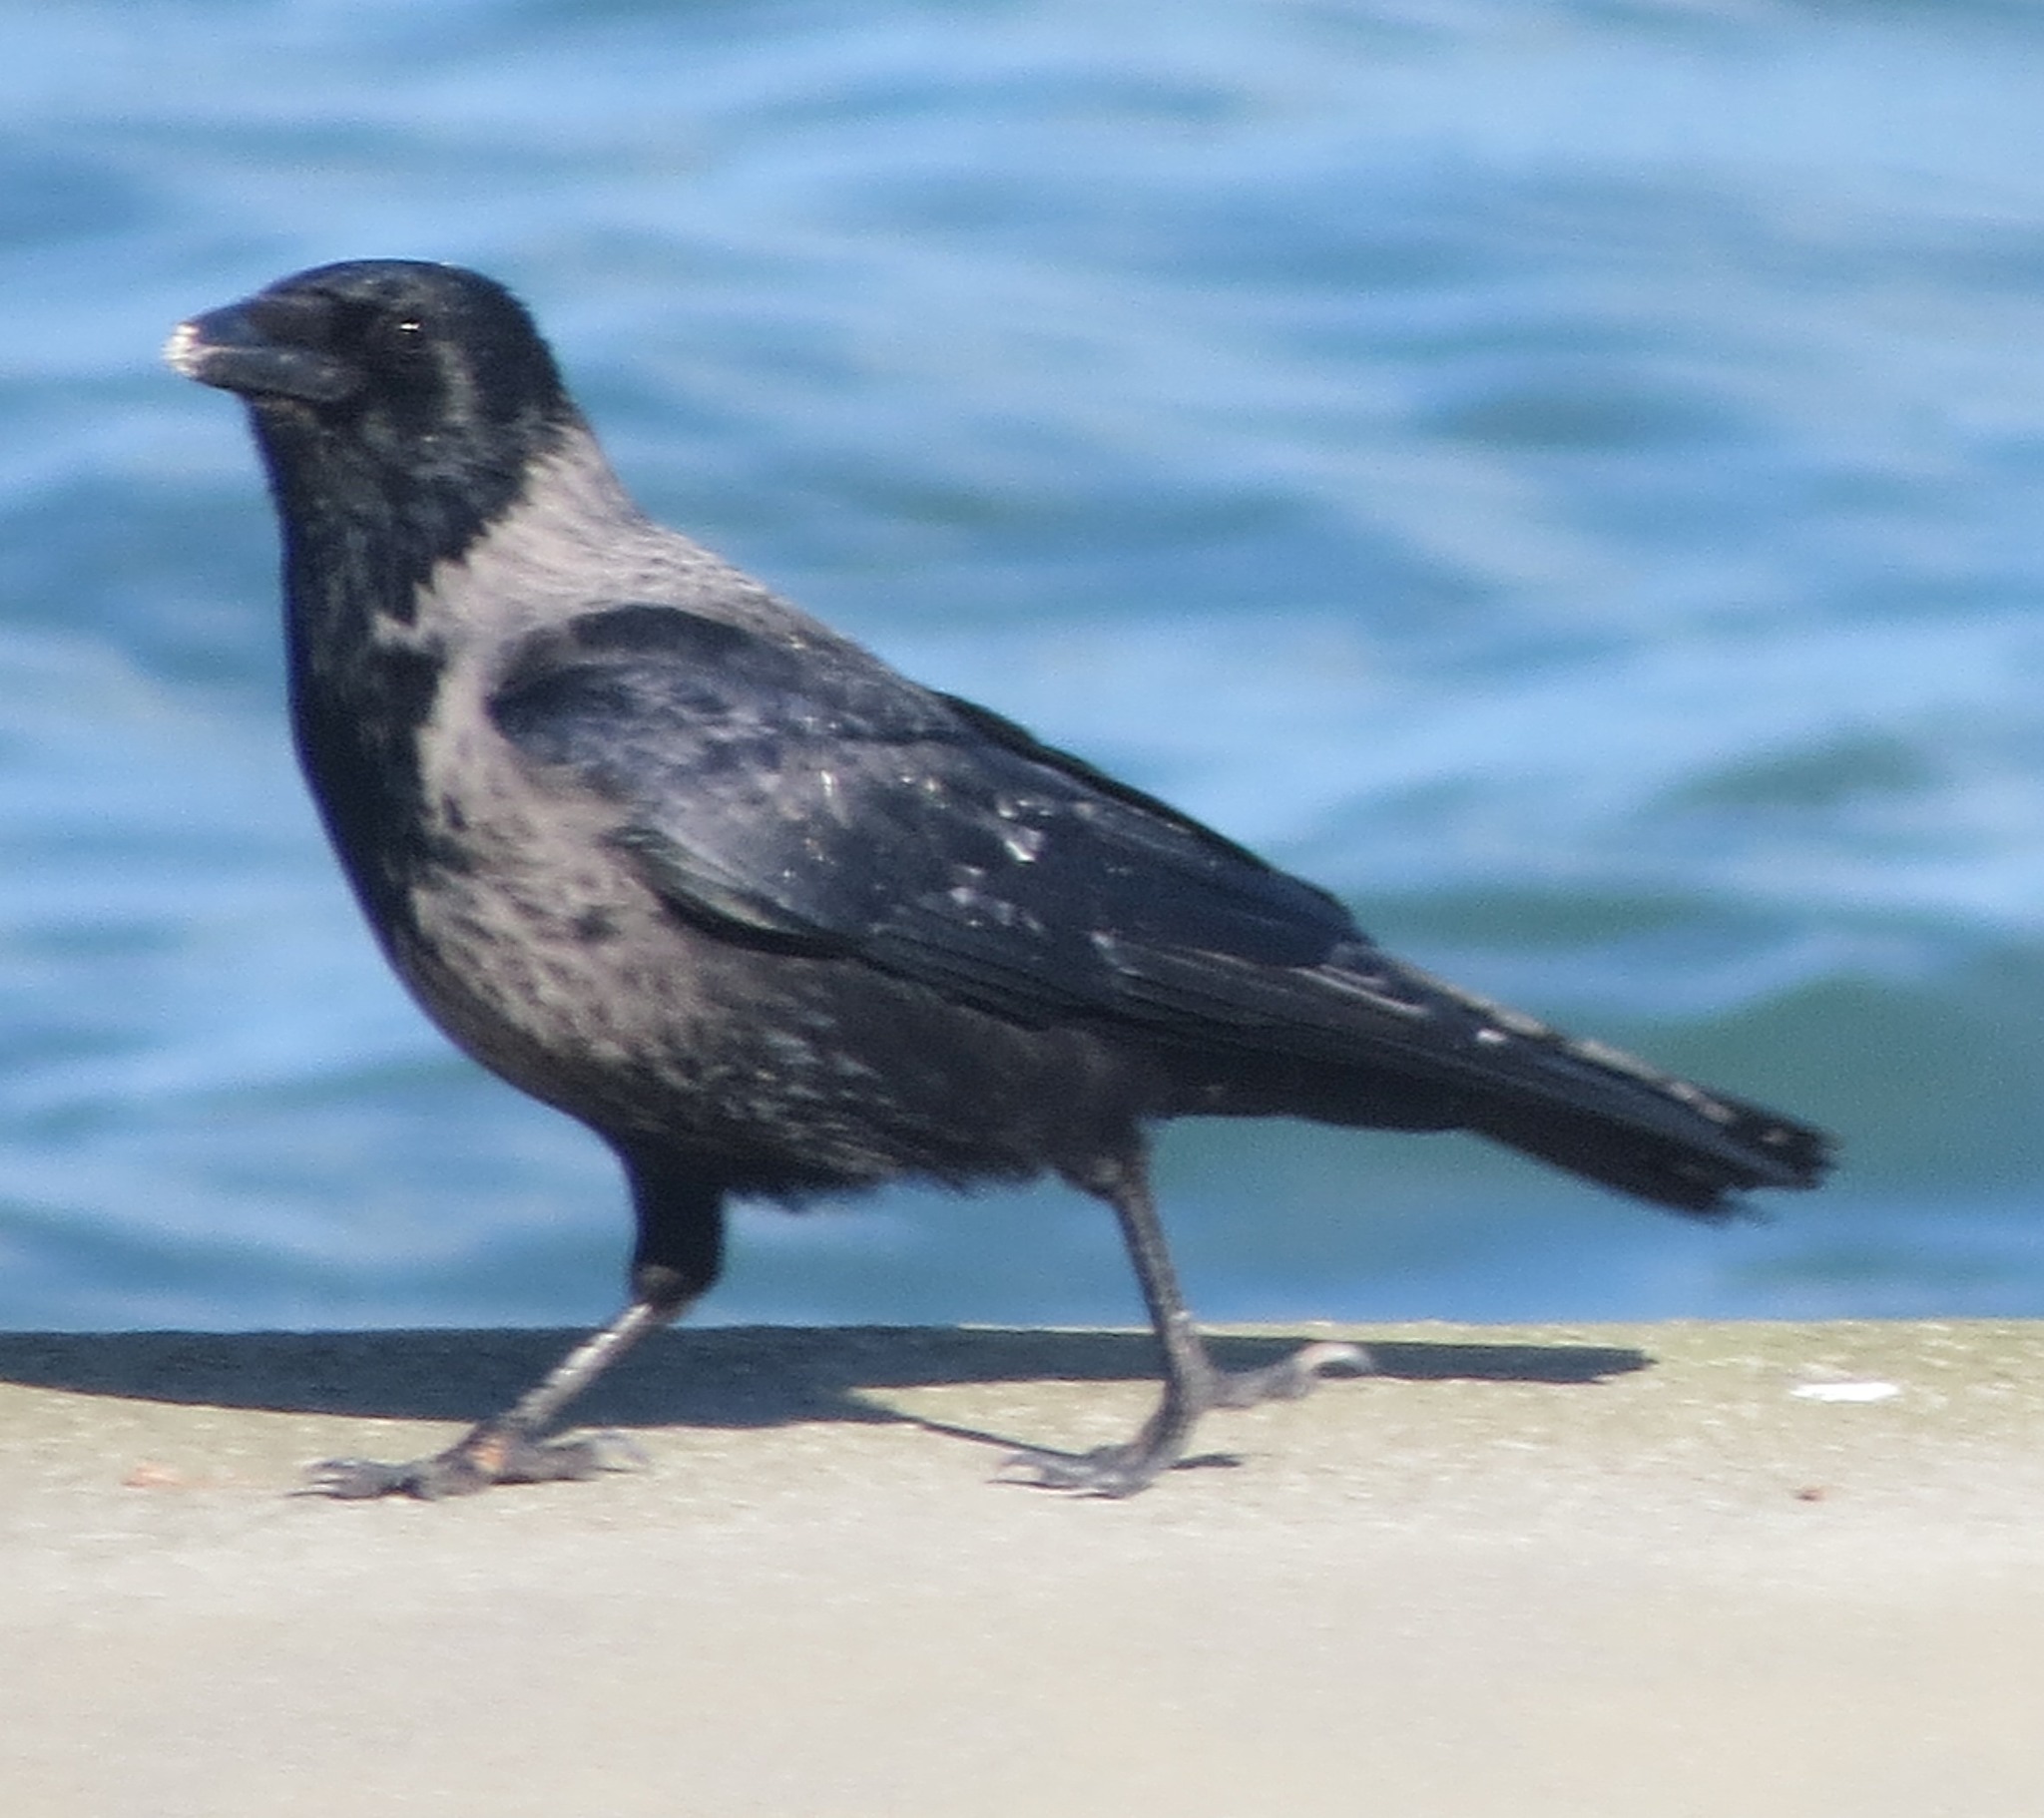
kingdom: Animalia
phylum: Chordata
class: Aves
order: Passeriformes
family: Corvidae
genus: Corvus
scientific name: Corvus
